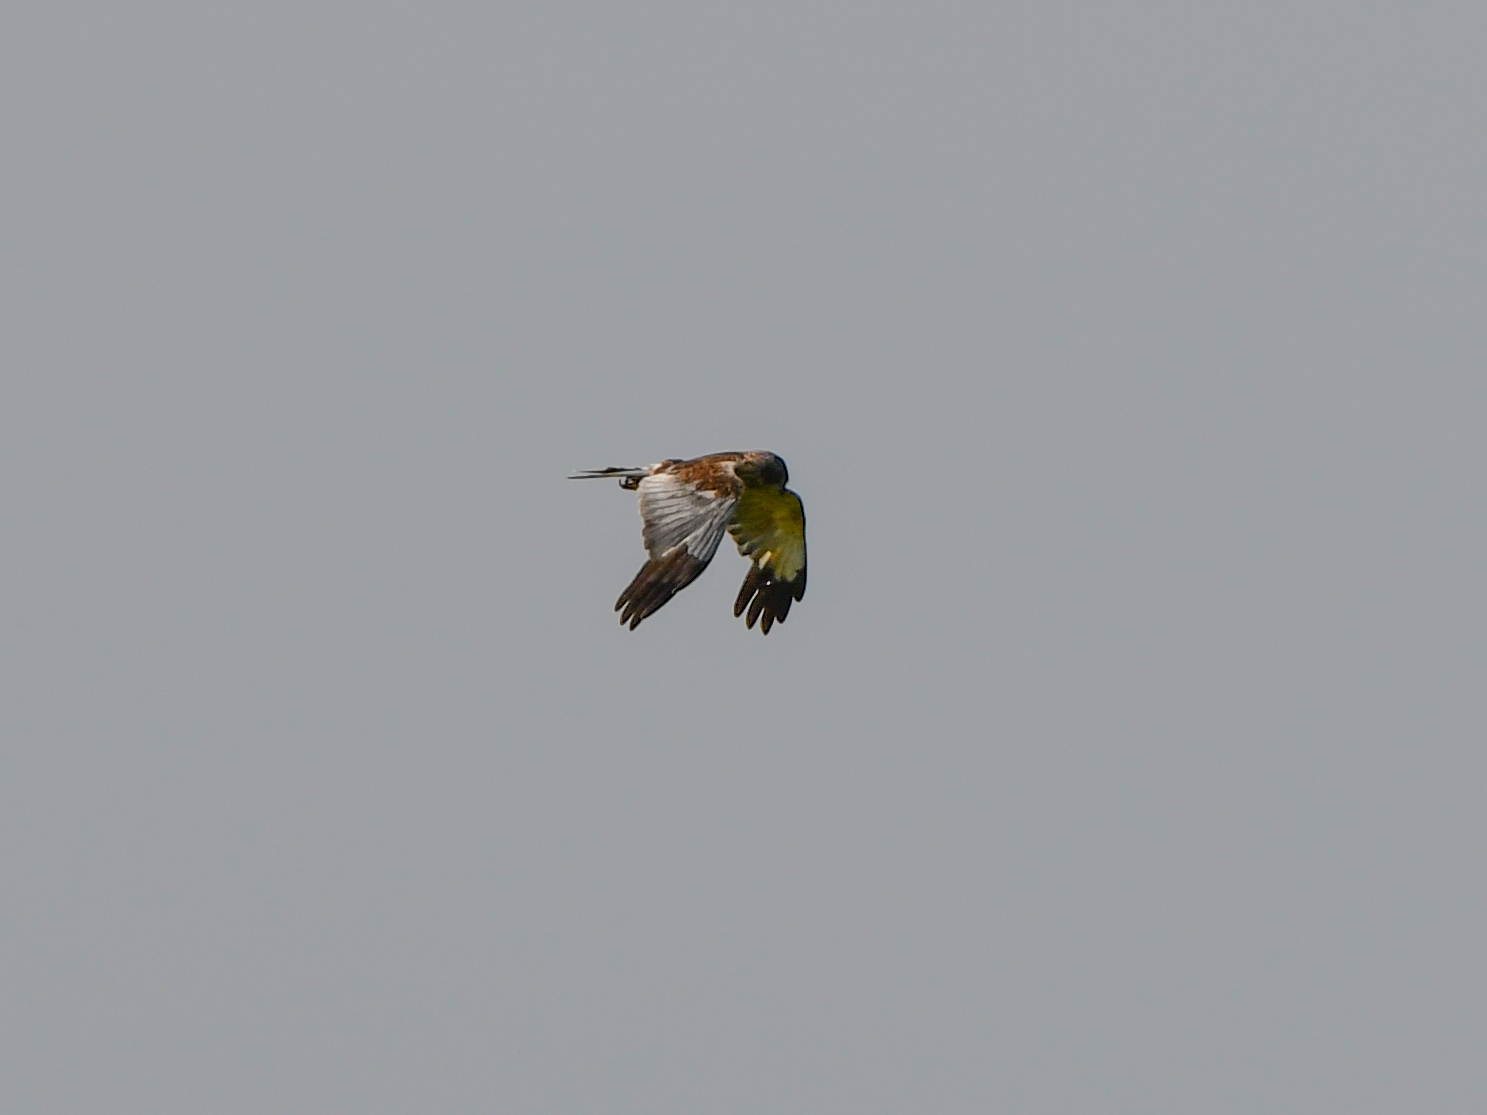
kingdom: Animalia
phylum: Chordata
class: Aves
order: Accipitriformes
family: Accipitridae
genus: Circus
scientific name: Circus aeruginosus
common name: Western marsh harrier
